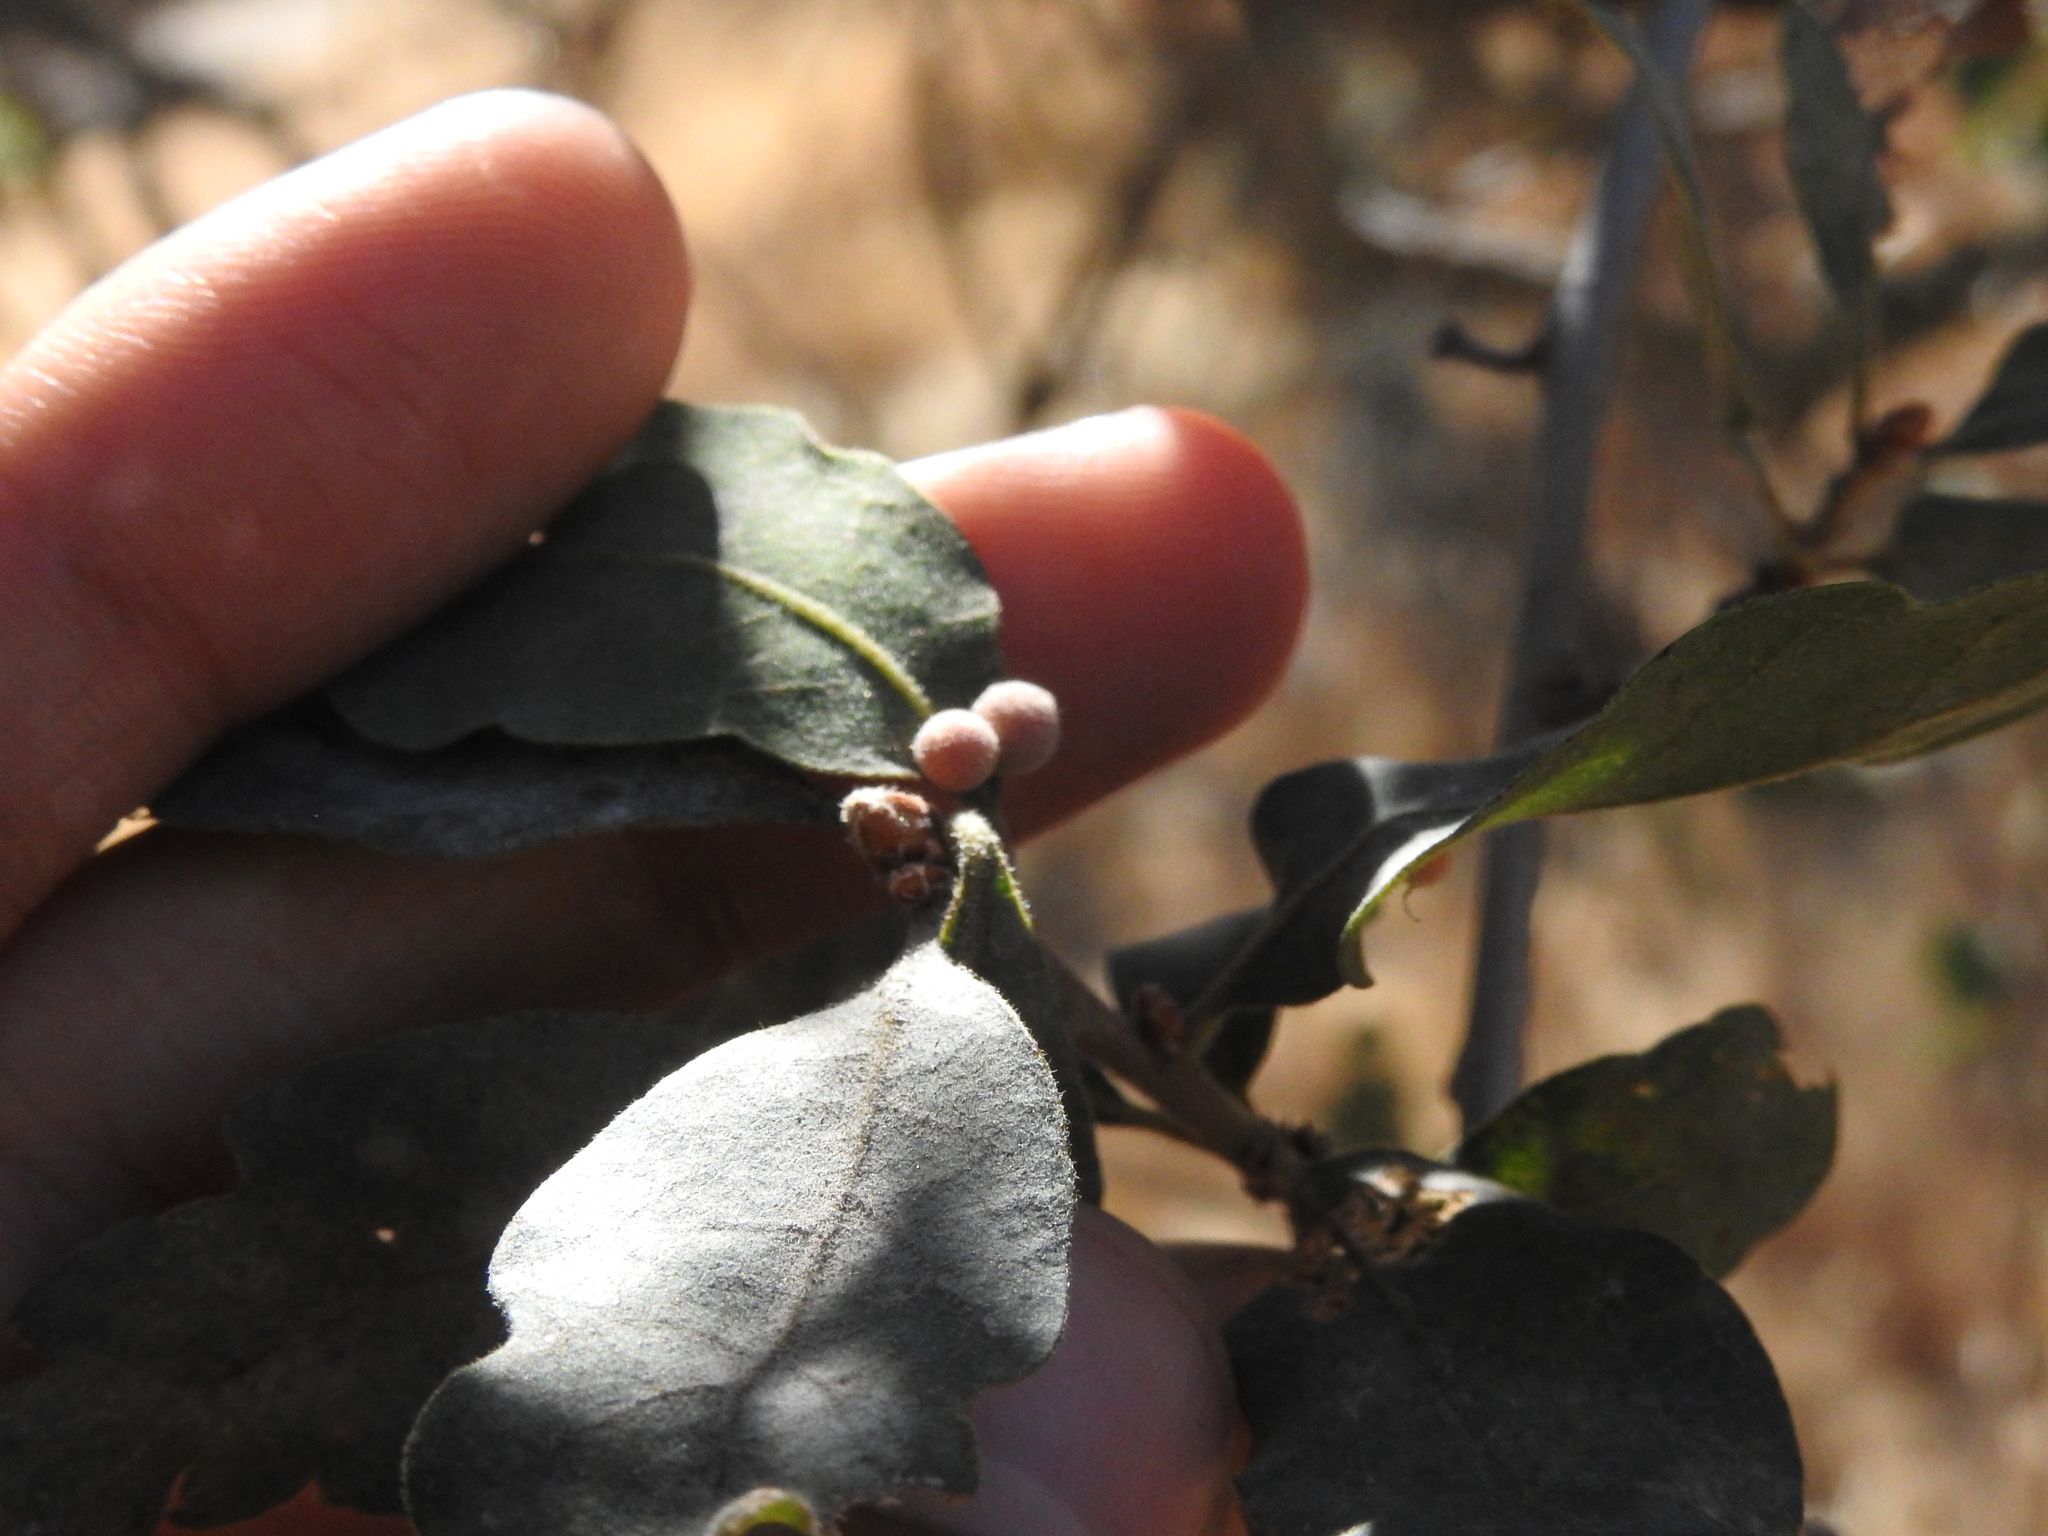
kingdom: Animalia
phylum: Arthropoda
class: Insecta
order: Hymenoptera
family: Cynipidae
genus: Andricus
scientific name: Andricus
